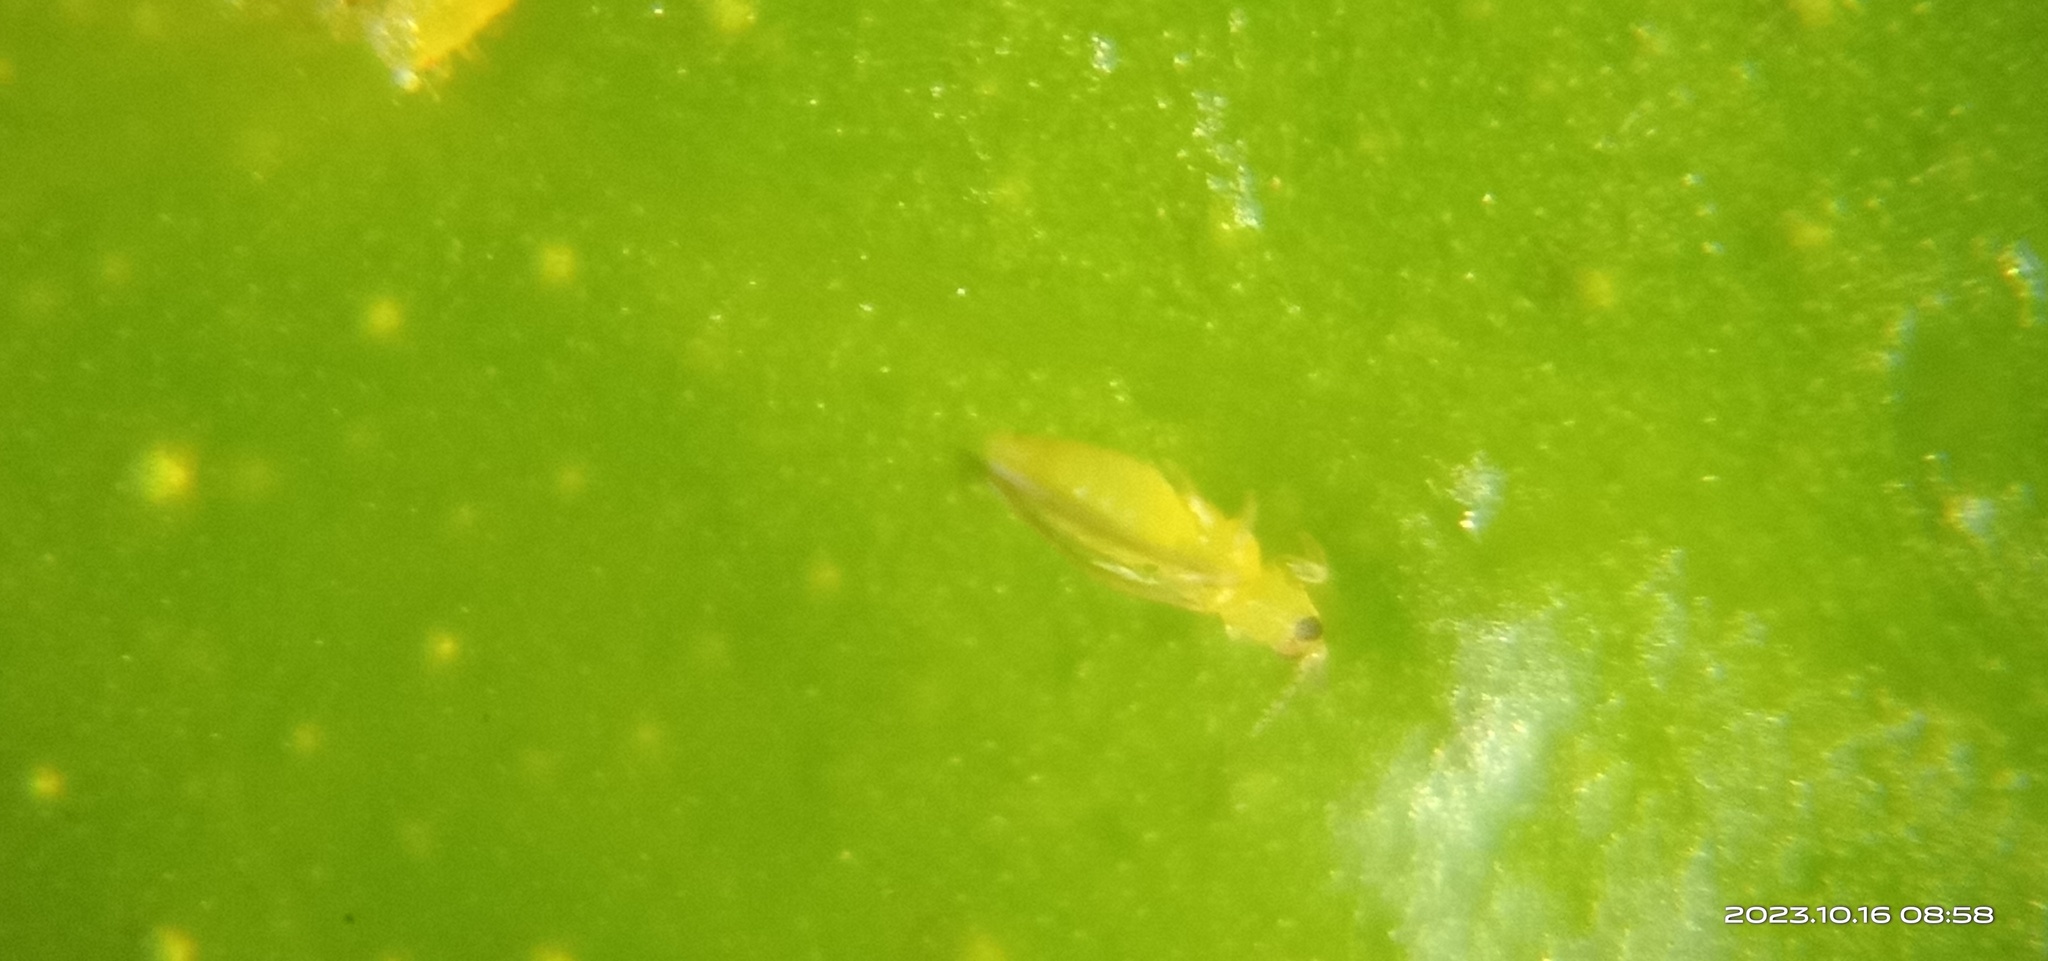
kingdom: Animalia
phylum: Arthropoda
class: Insecta
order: Thysanoptera
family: Thripidae
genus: Scirtothrips
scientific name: Scirtothrips dorsalis
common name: Thrips
